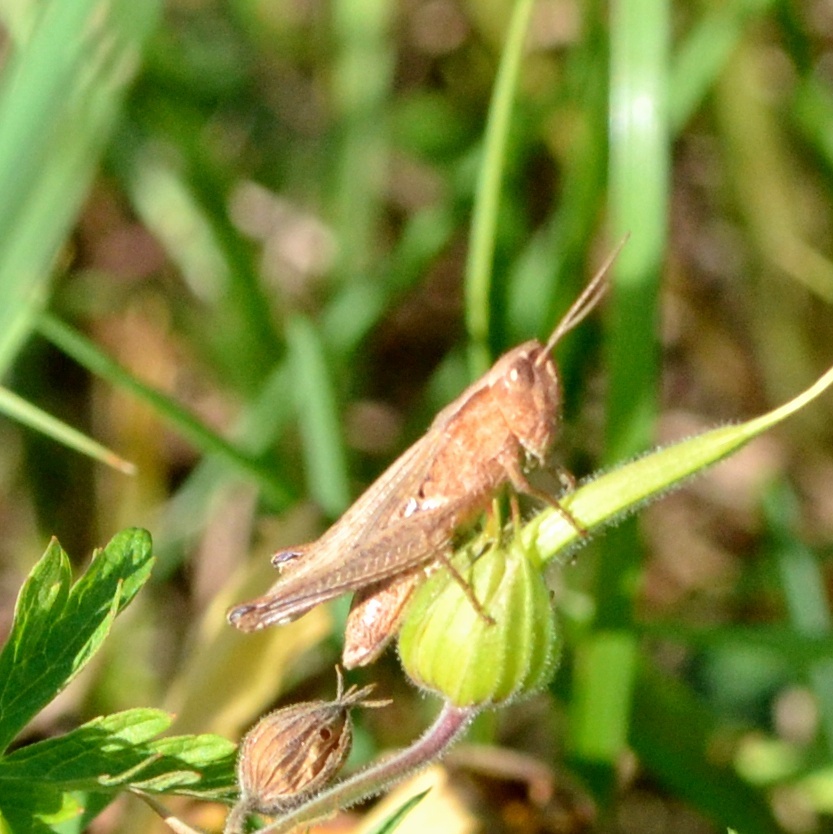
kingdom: Animalia
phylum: Arthropoda
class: Insecta
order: Orthoptera
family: Acrididae
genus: Chorthippus
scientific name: Chorthippus dorsatus
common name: Steppe grasshopper
